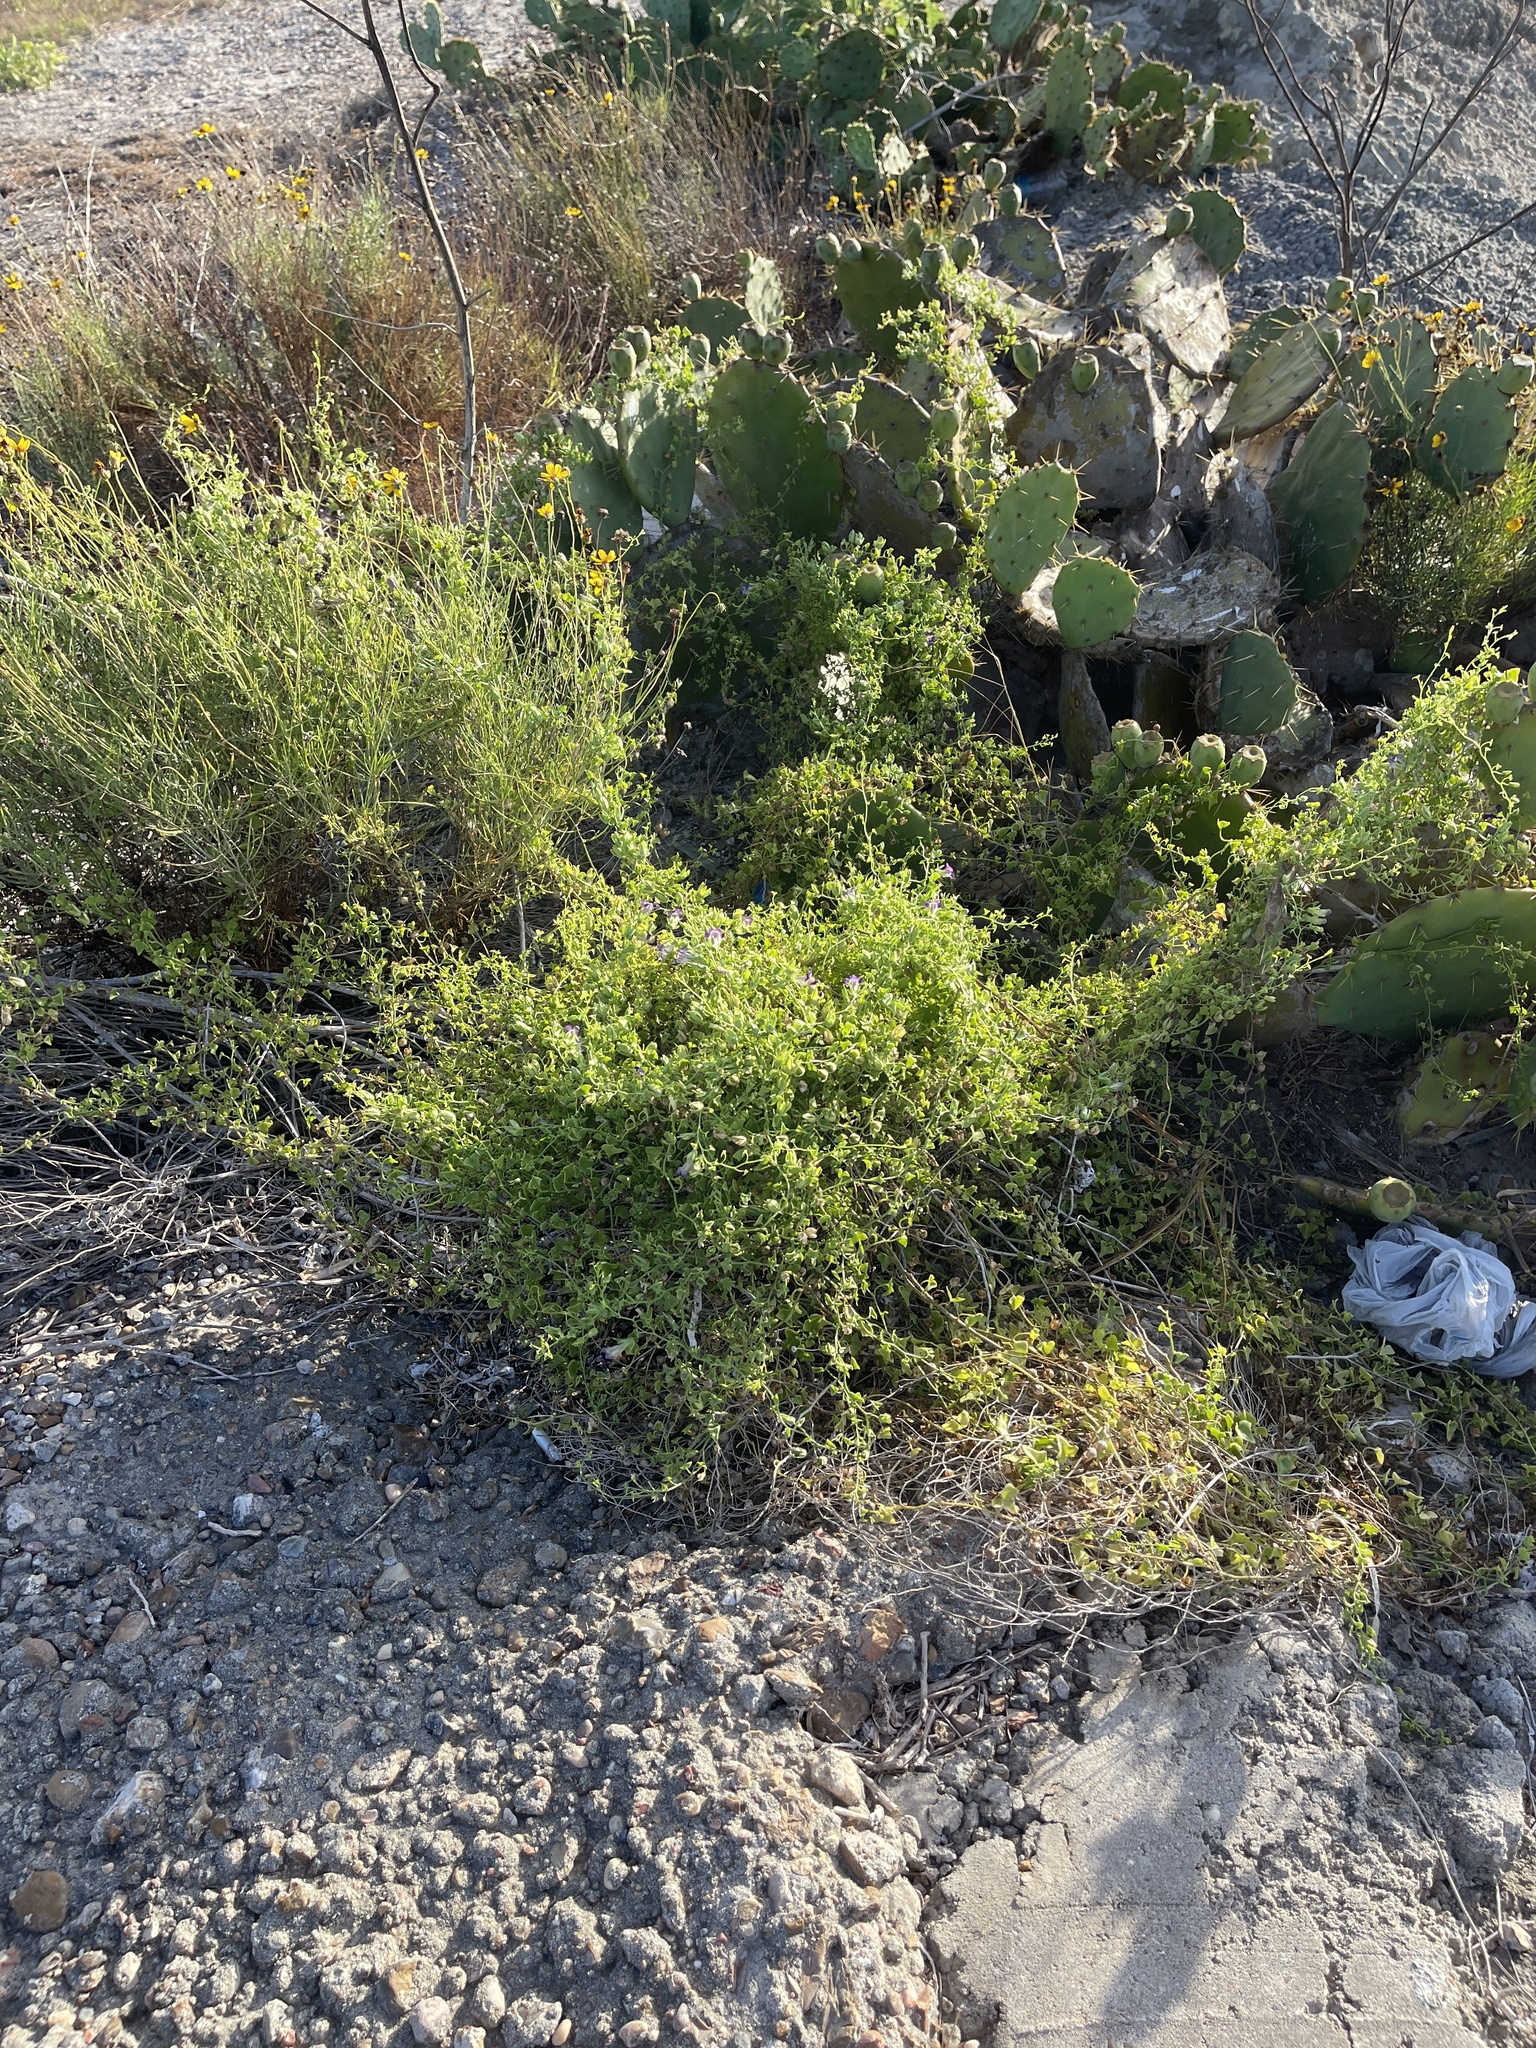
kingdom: Plantae
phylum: Tracheophyta
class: Magnoliopsida
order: Lamiales
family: Plantaginaceae
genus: Maurandella
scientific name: Maurandella antirrhiniflora
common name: Violet twining-snapdragon
